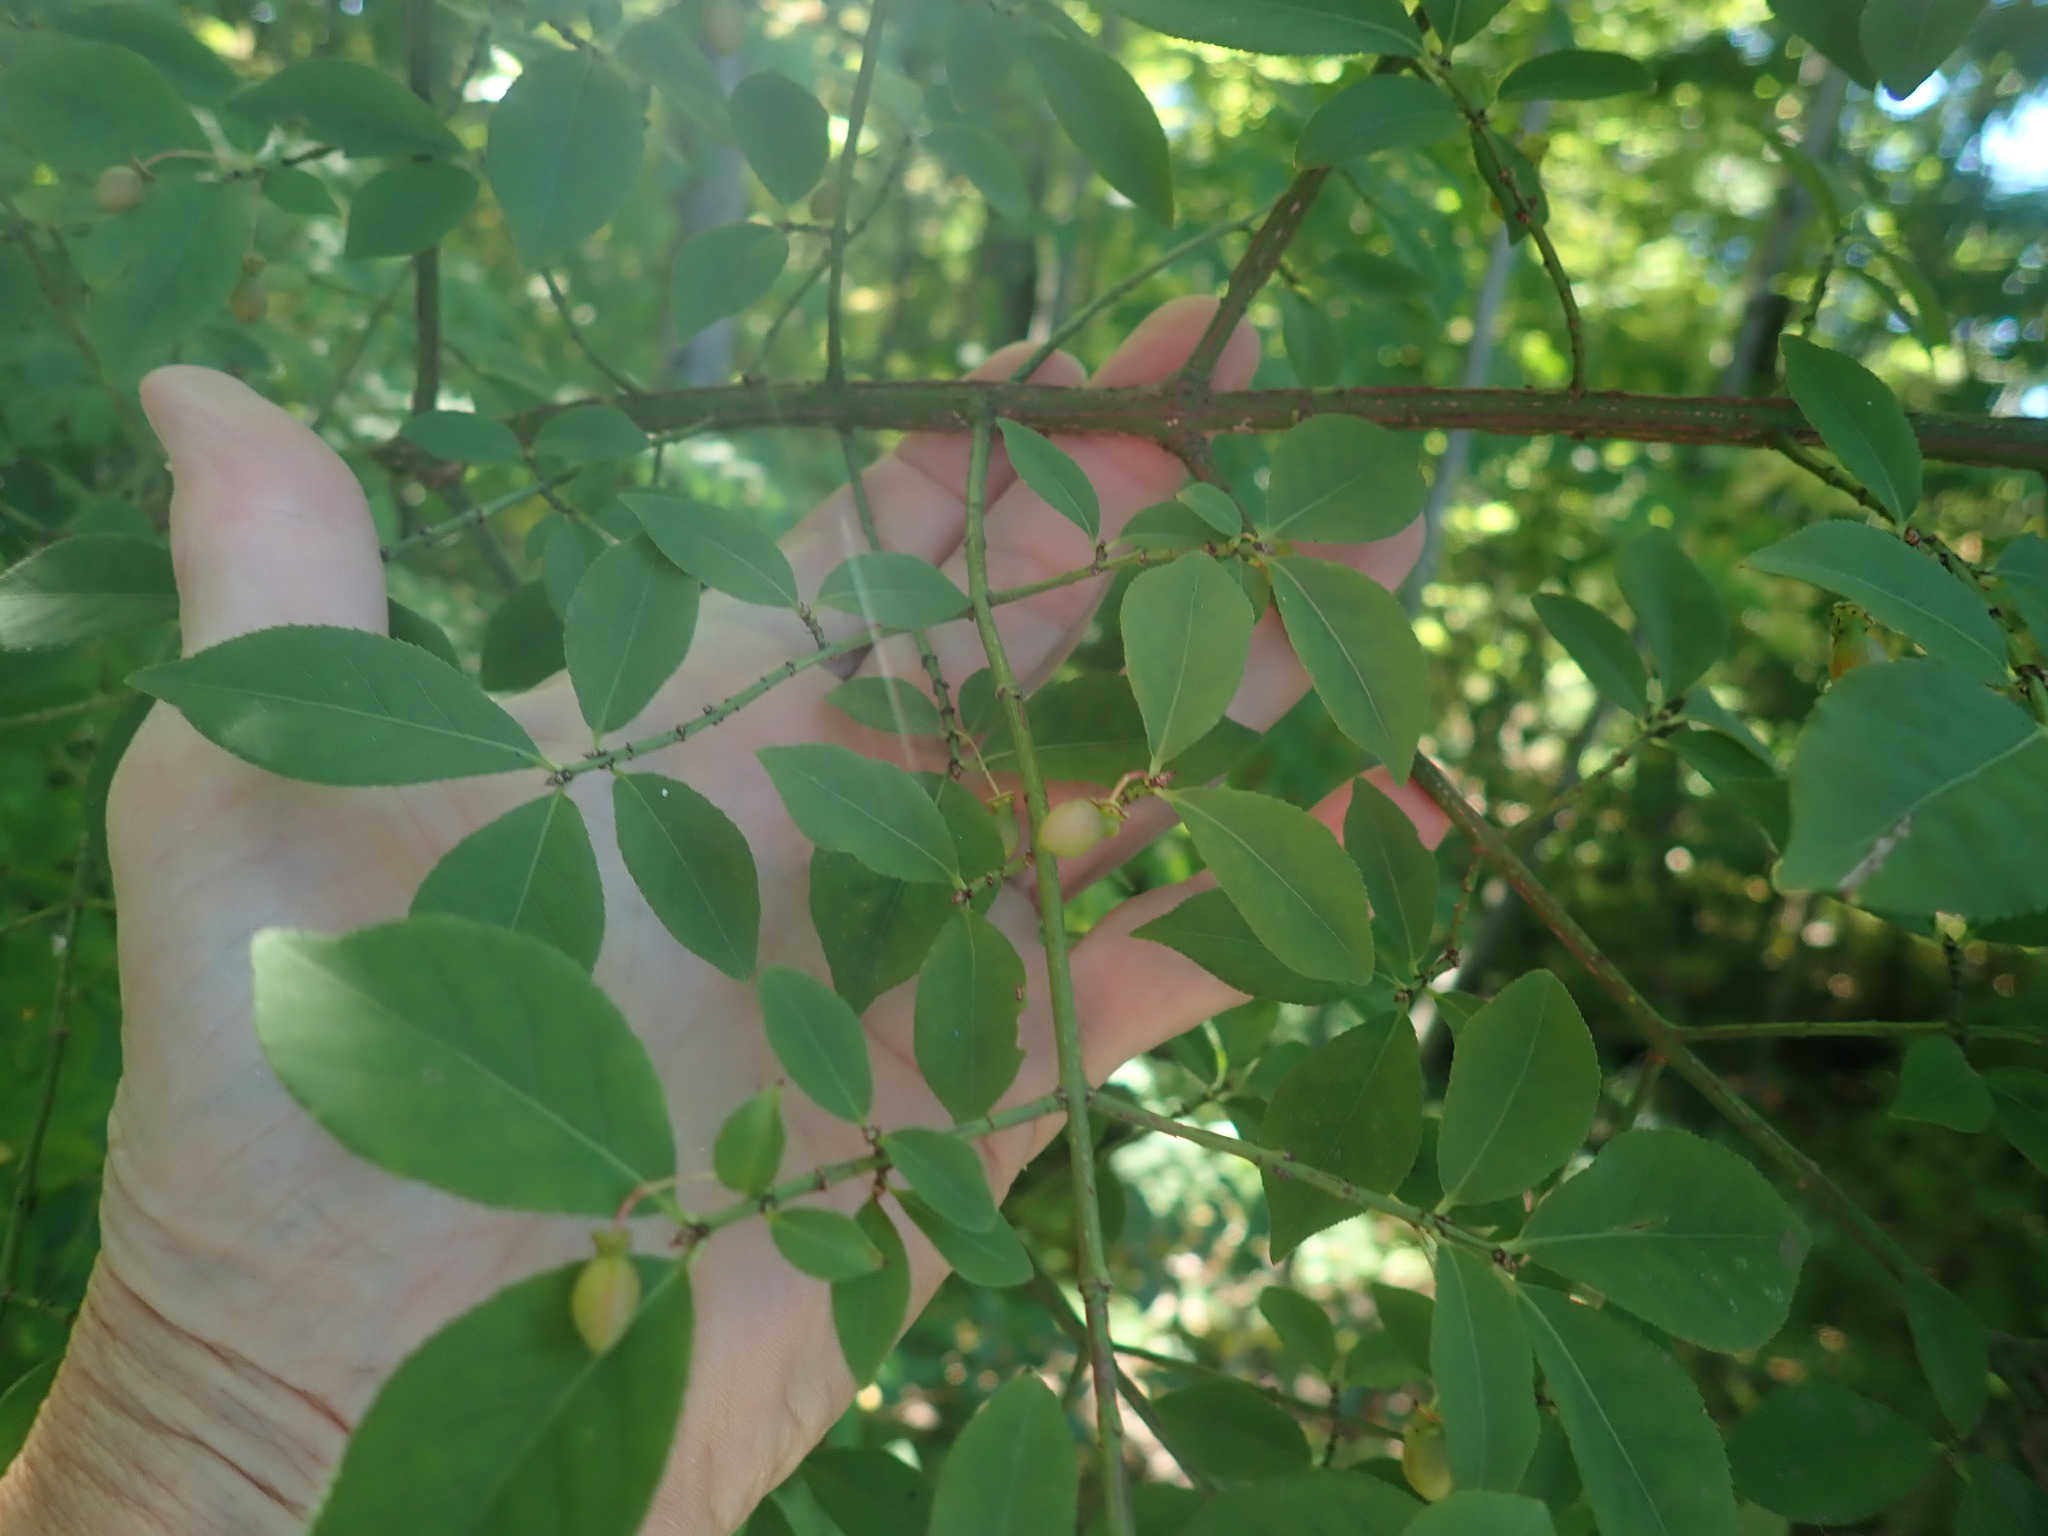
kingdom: Plantae
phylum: Tracheophyta
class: Magnoliopsida
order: Celastrales
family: Celastraceae
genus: Euonymus
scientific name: Euonymus alatus
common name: Winged euonymus
